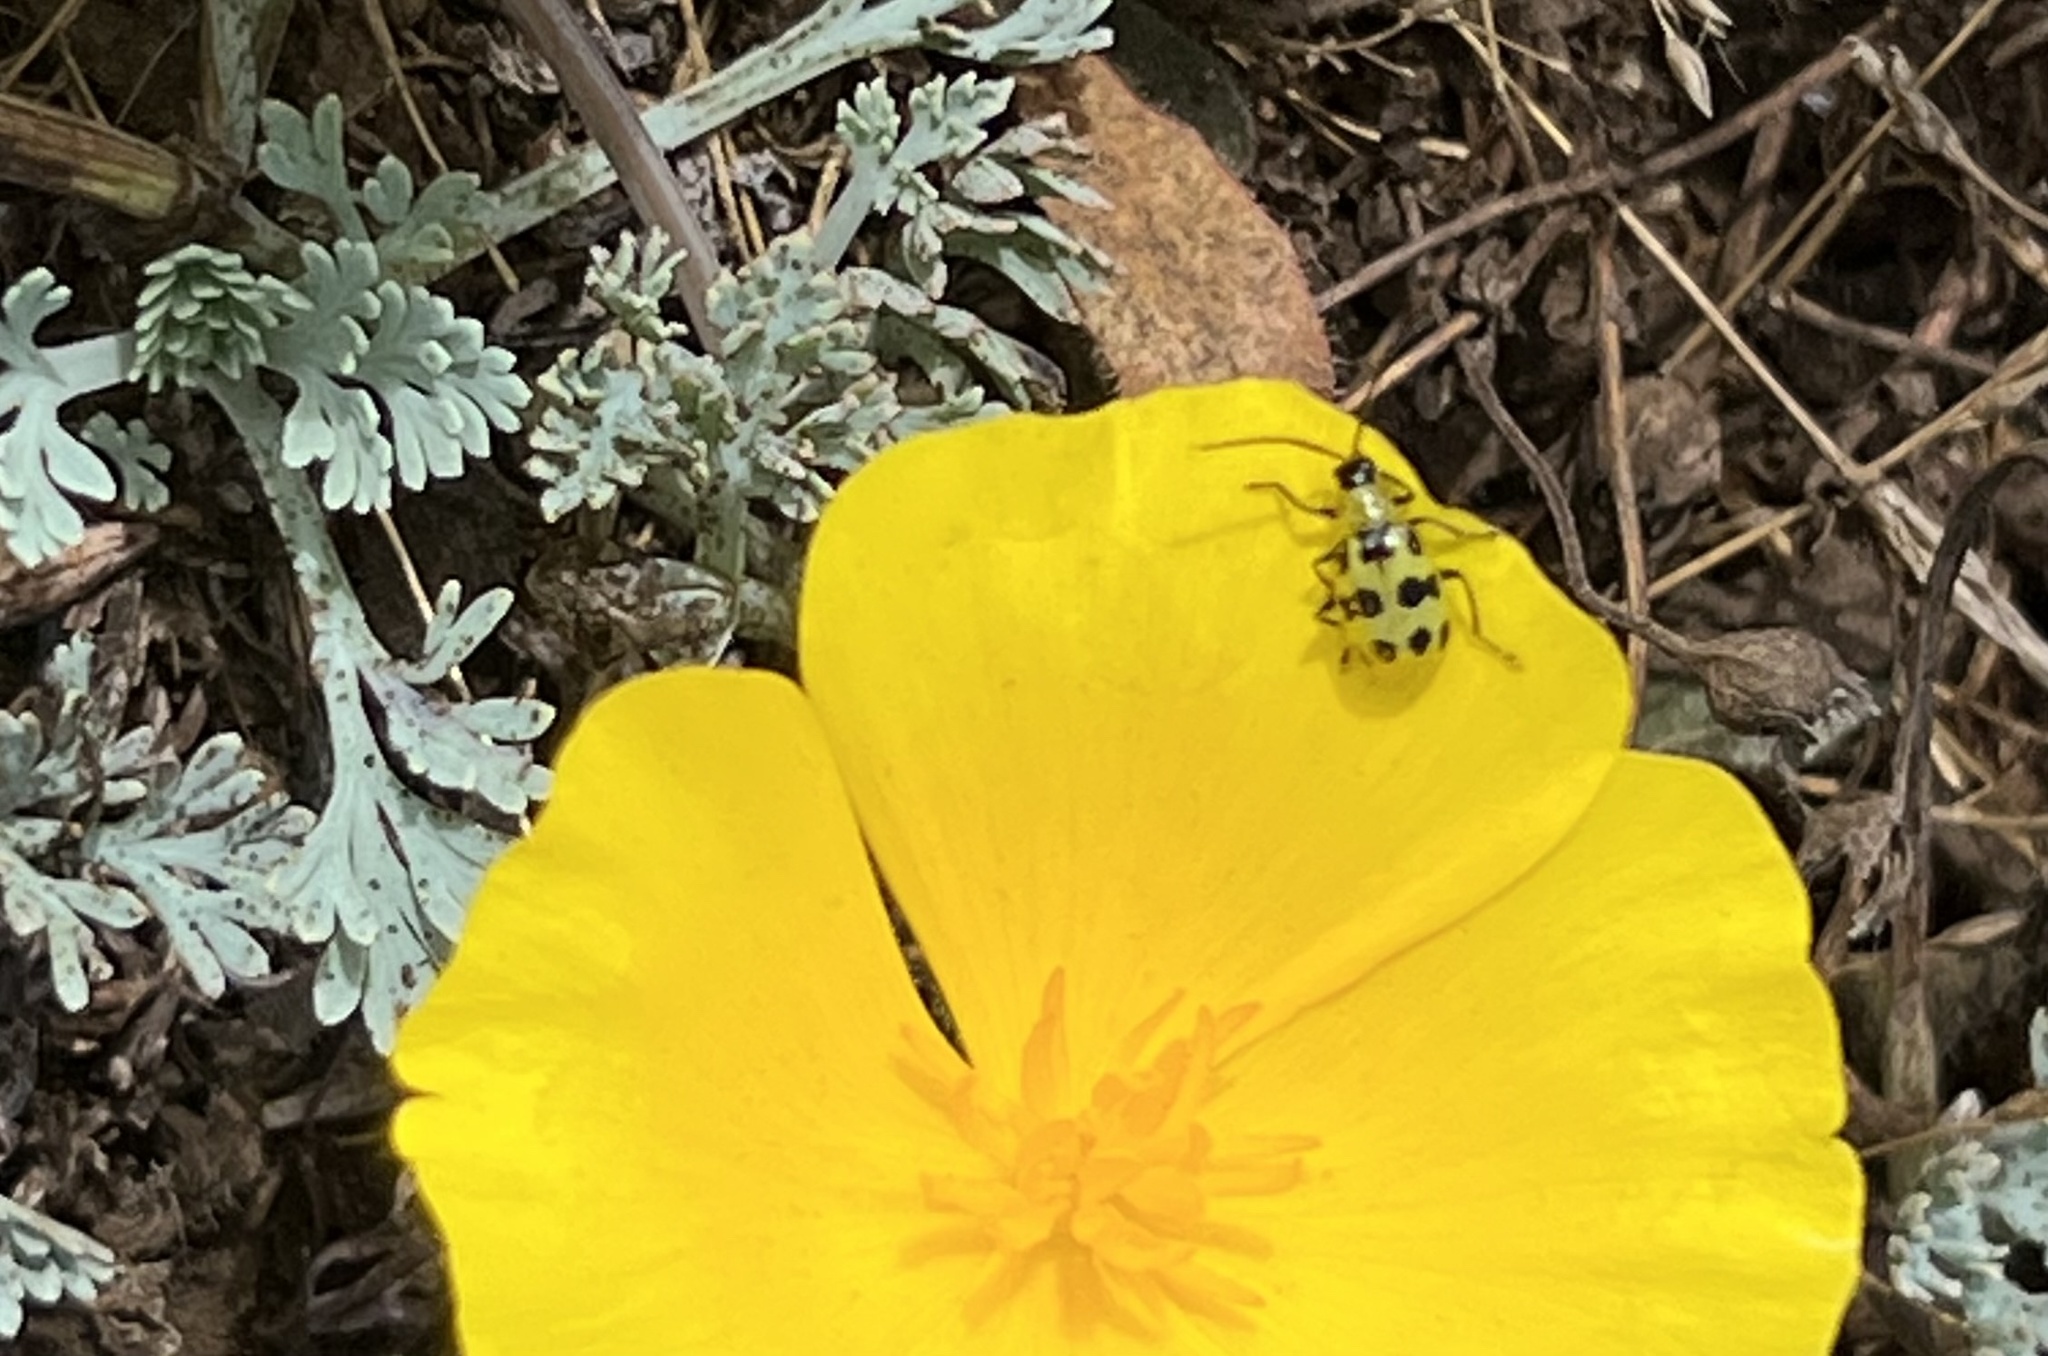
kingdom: Animalia
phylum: Arthropoda
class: Insecta
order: Coleoptera
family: Chrysomelidae
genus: Diabrotica
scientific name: Diabrotica undecimpunctata
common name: Spotted cucumber beetle
